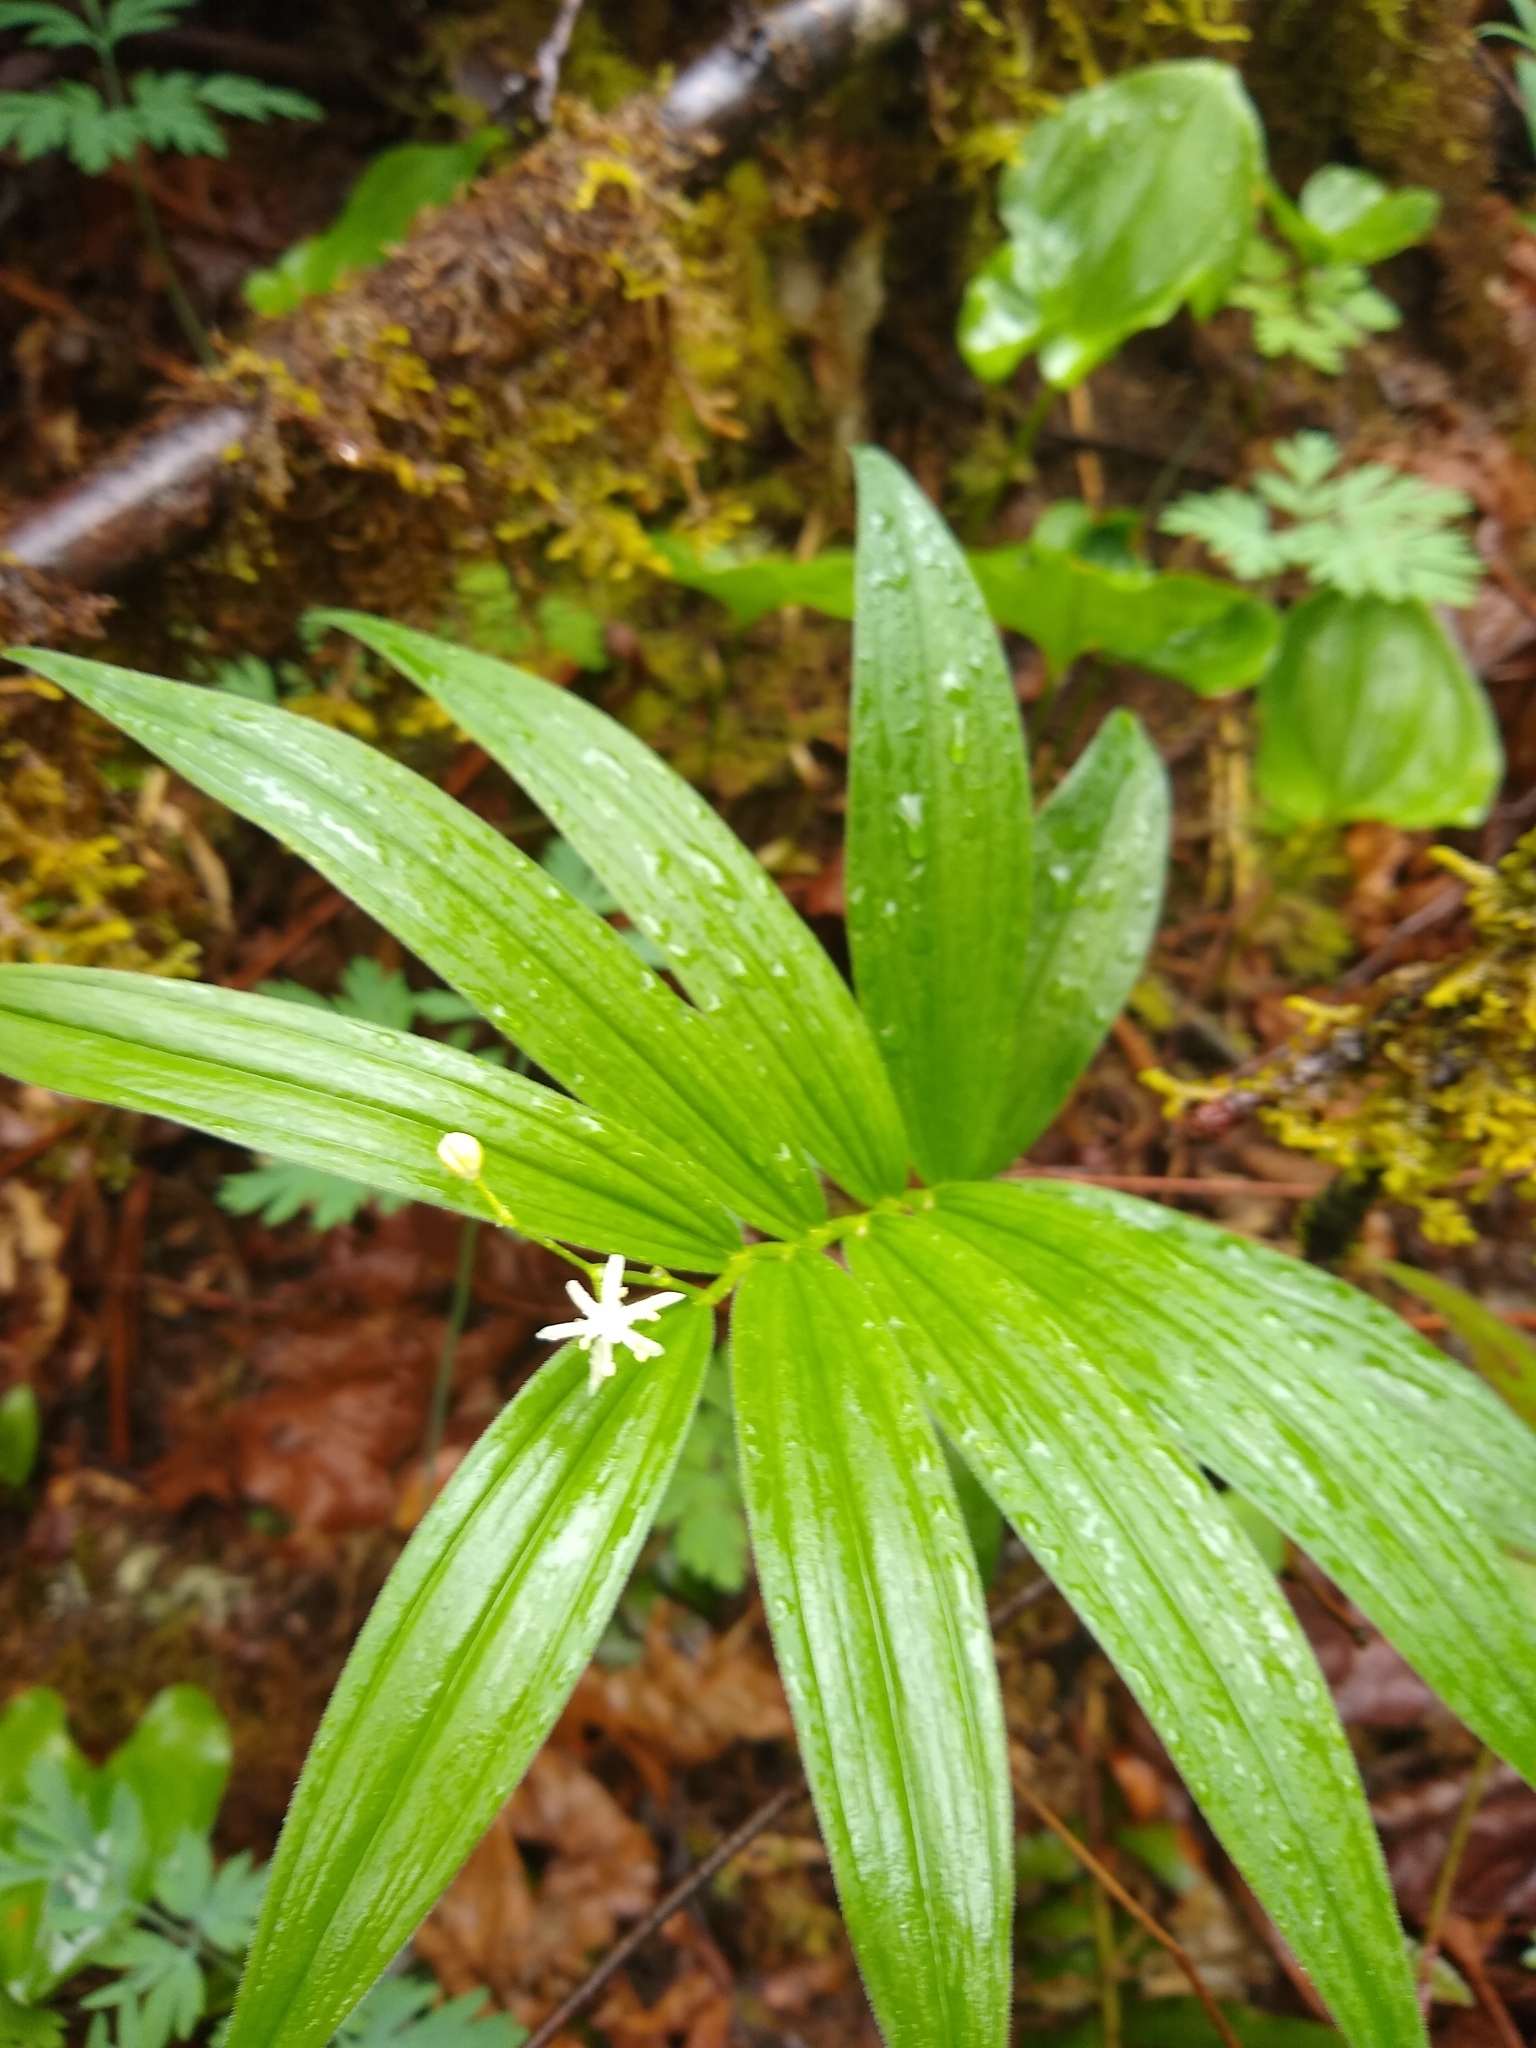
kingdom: Plantae
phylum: Tracheophyta
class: Liliopsida
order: Asparagales
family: Asparagaceae
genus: Maianthemum
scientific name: Maianthemum stellatum
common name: Little false solomon's seal
